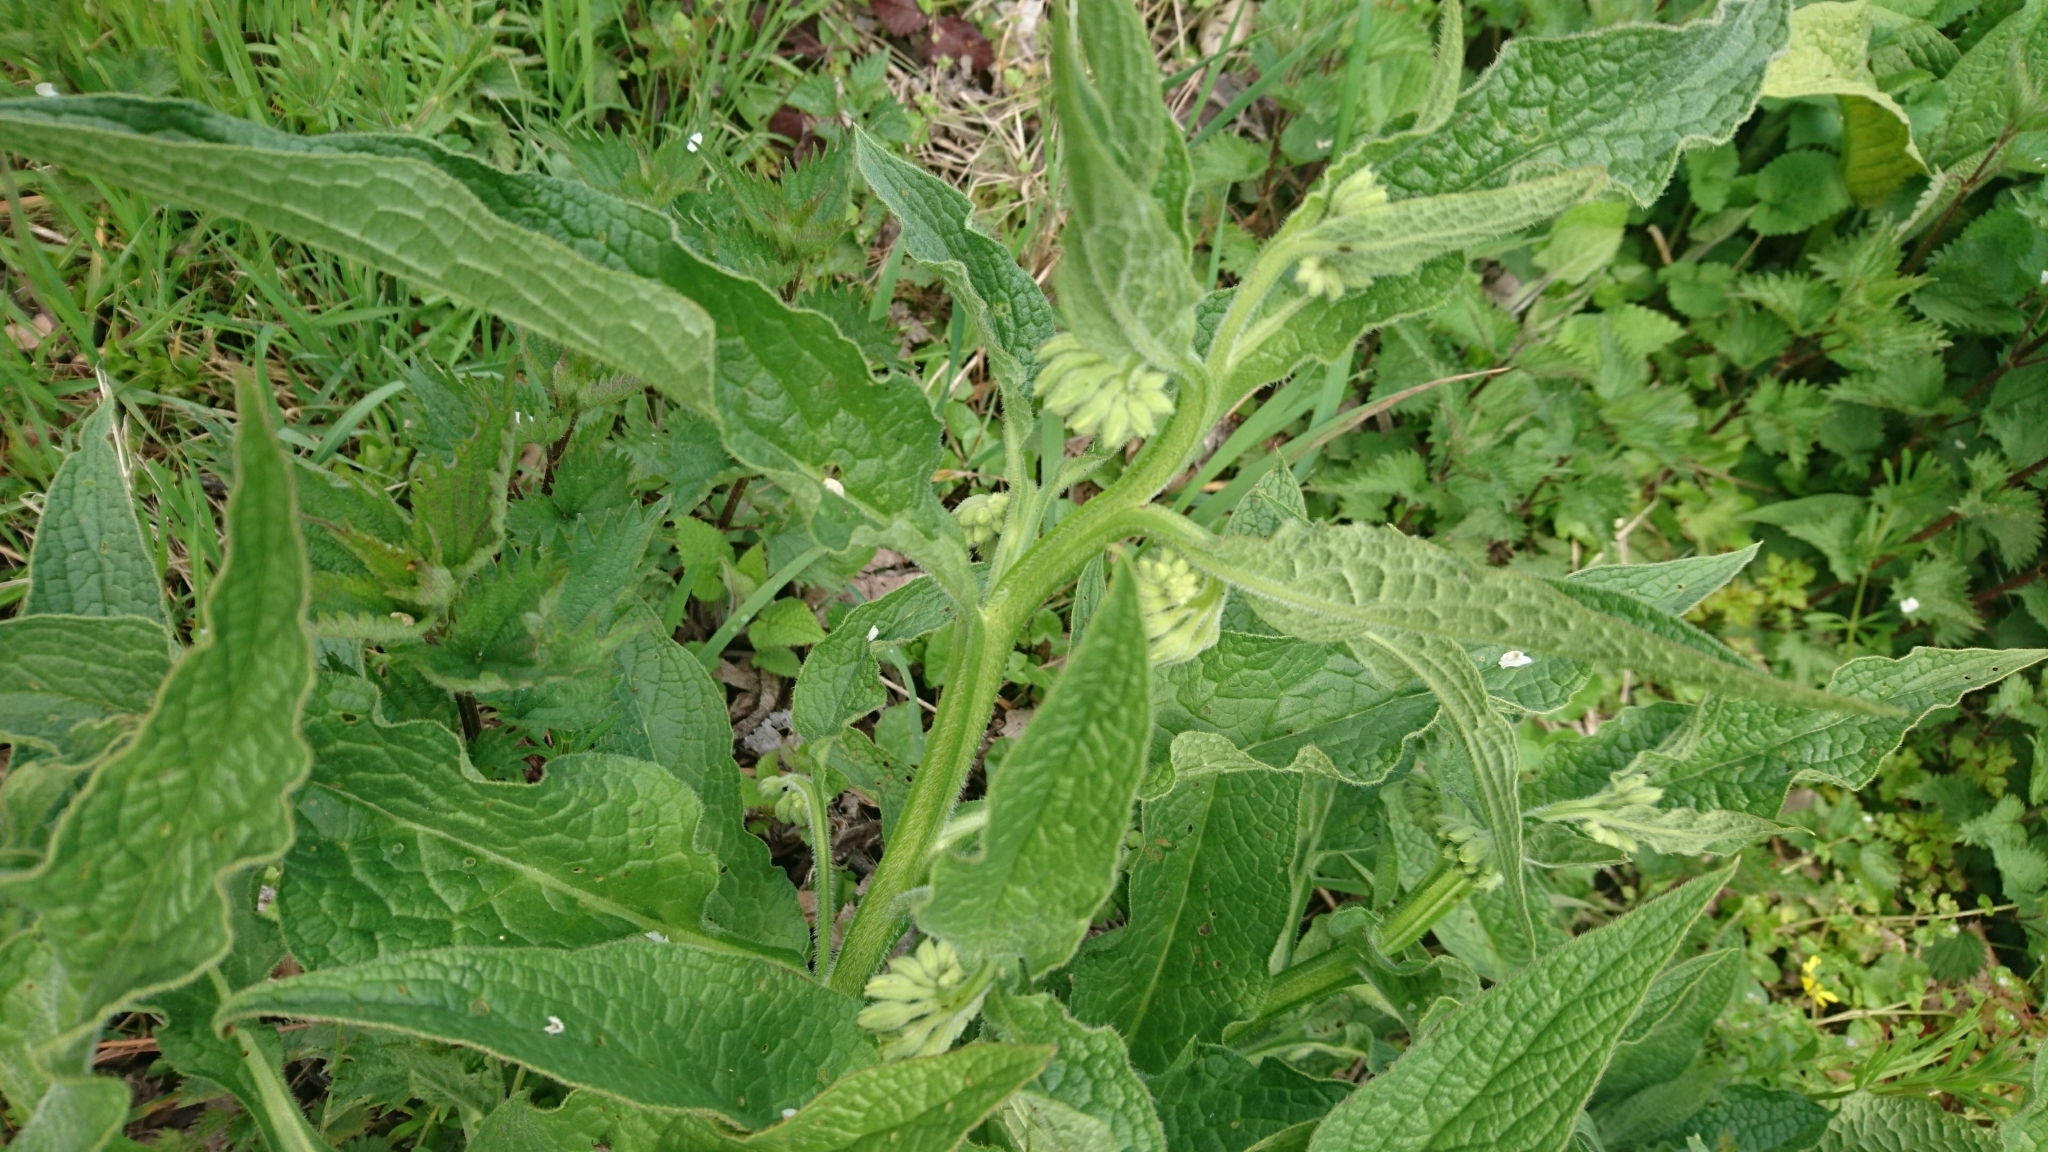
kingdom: Plantae
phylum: Tracheophyta
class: Magnoliopsida
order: Boraginales
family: Boraginaceae
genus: Symphytum
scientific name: Symphytum officinale
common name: Common comfrey
